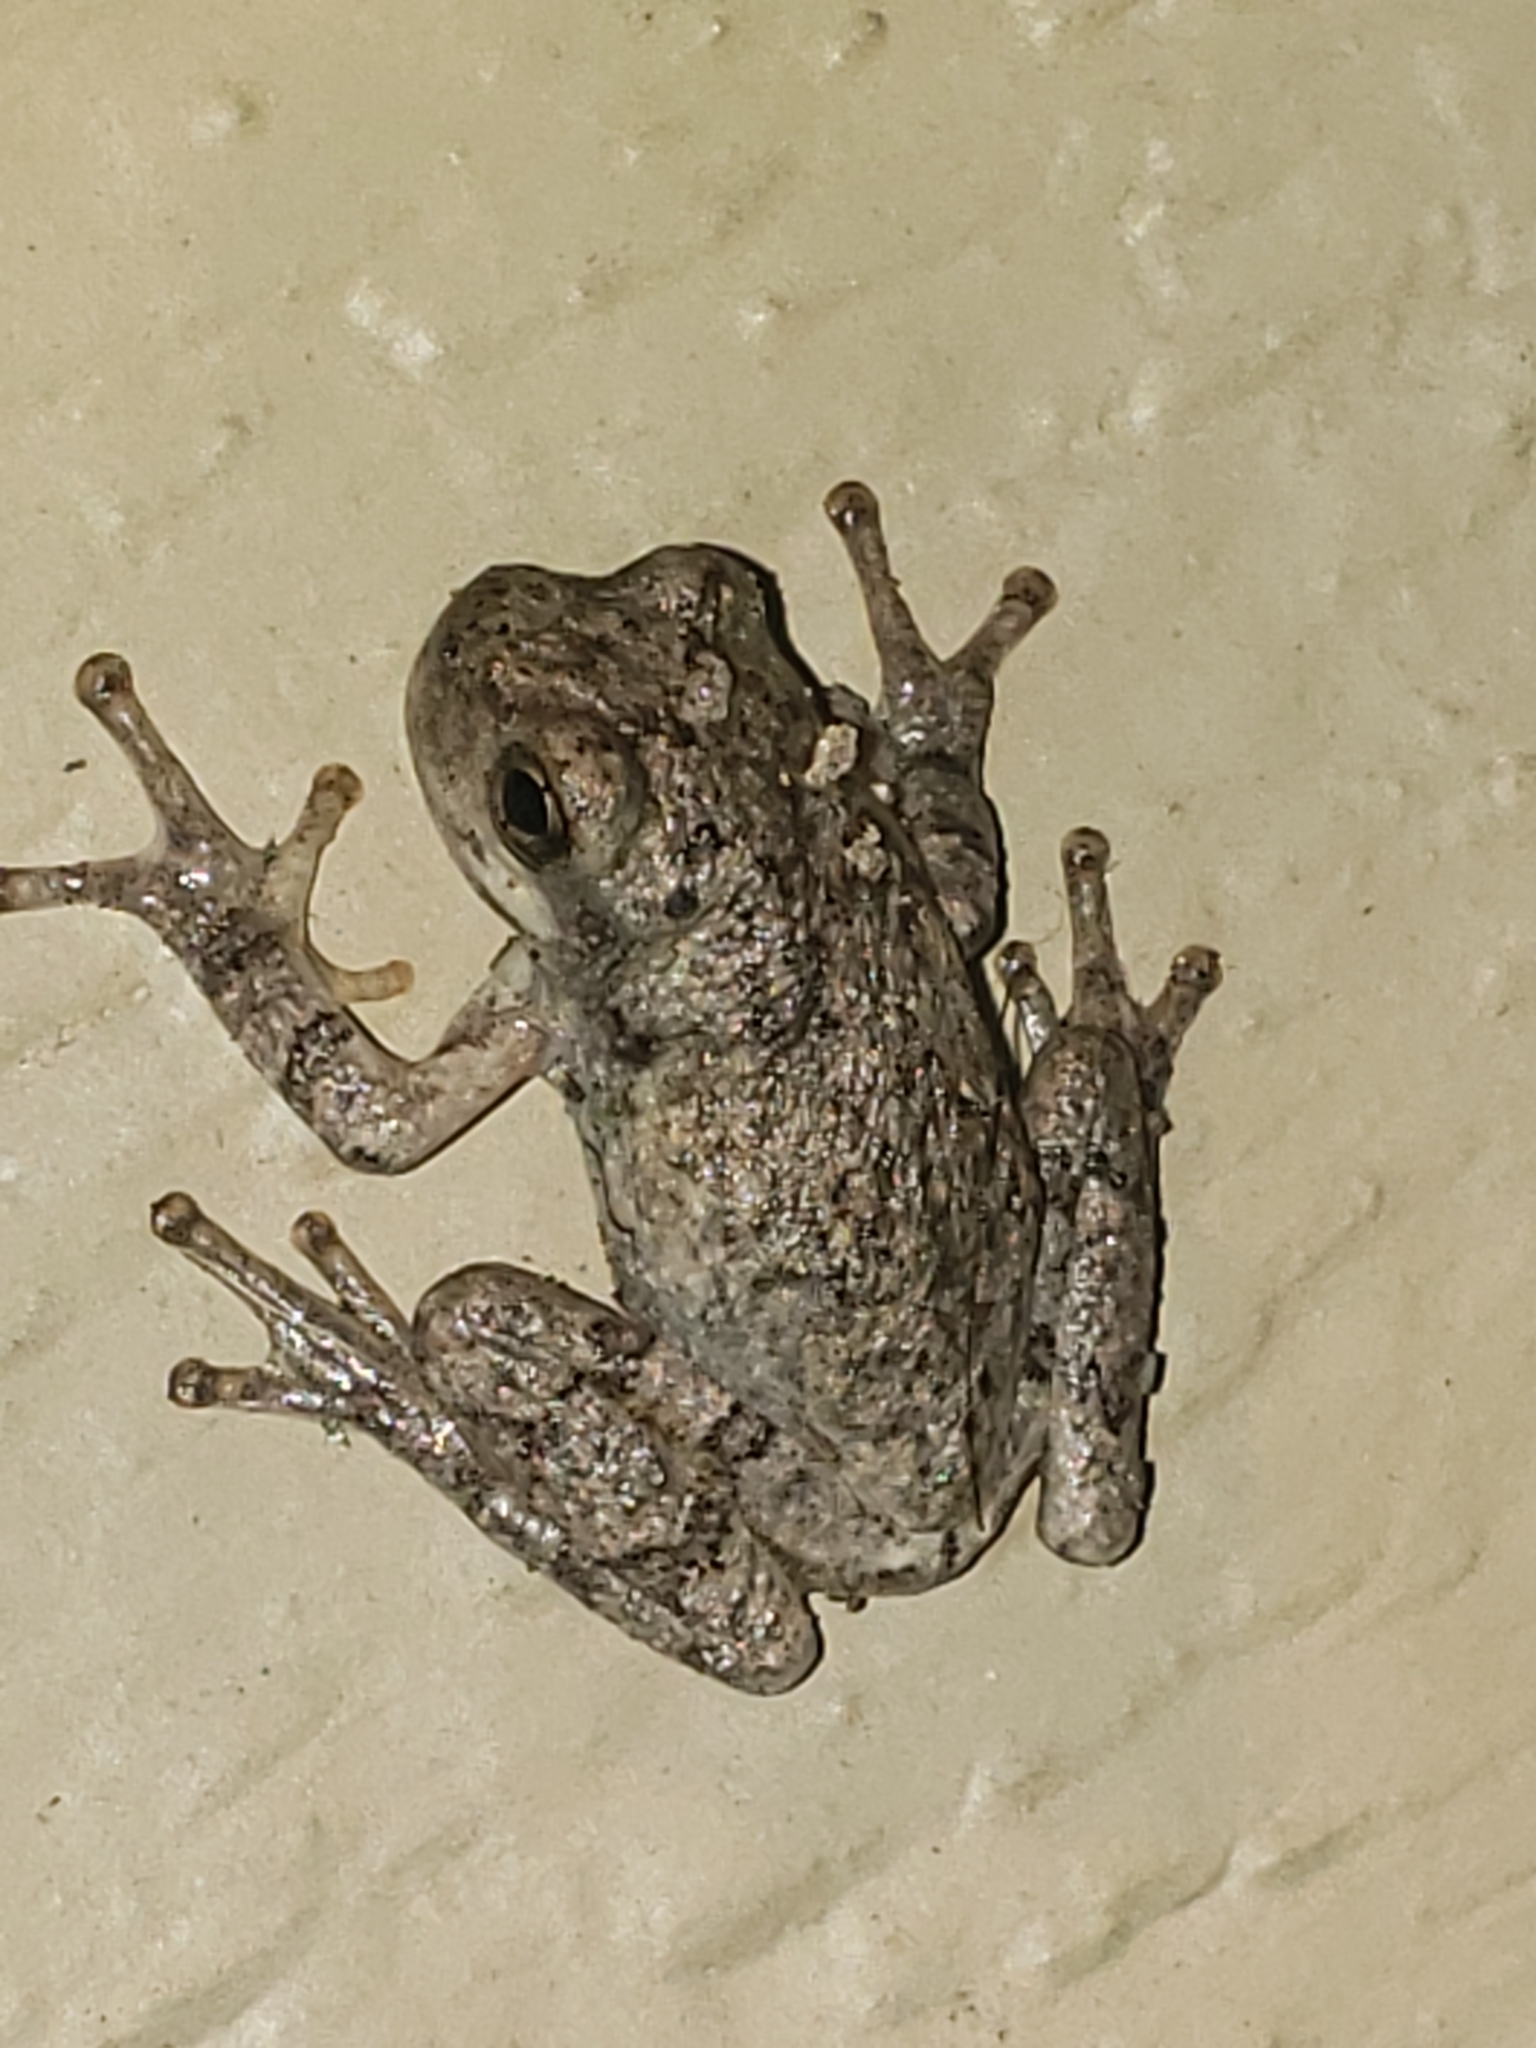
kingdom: Animalia
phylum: Chordata
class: Amphibia
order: Anura
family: Hylidae
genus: Hyla
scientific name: Hyla
